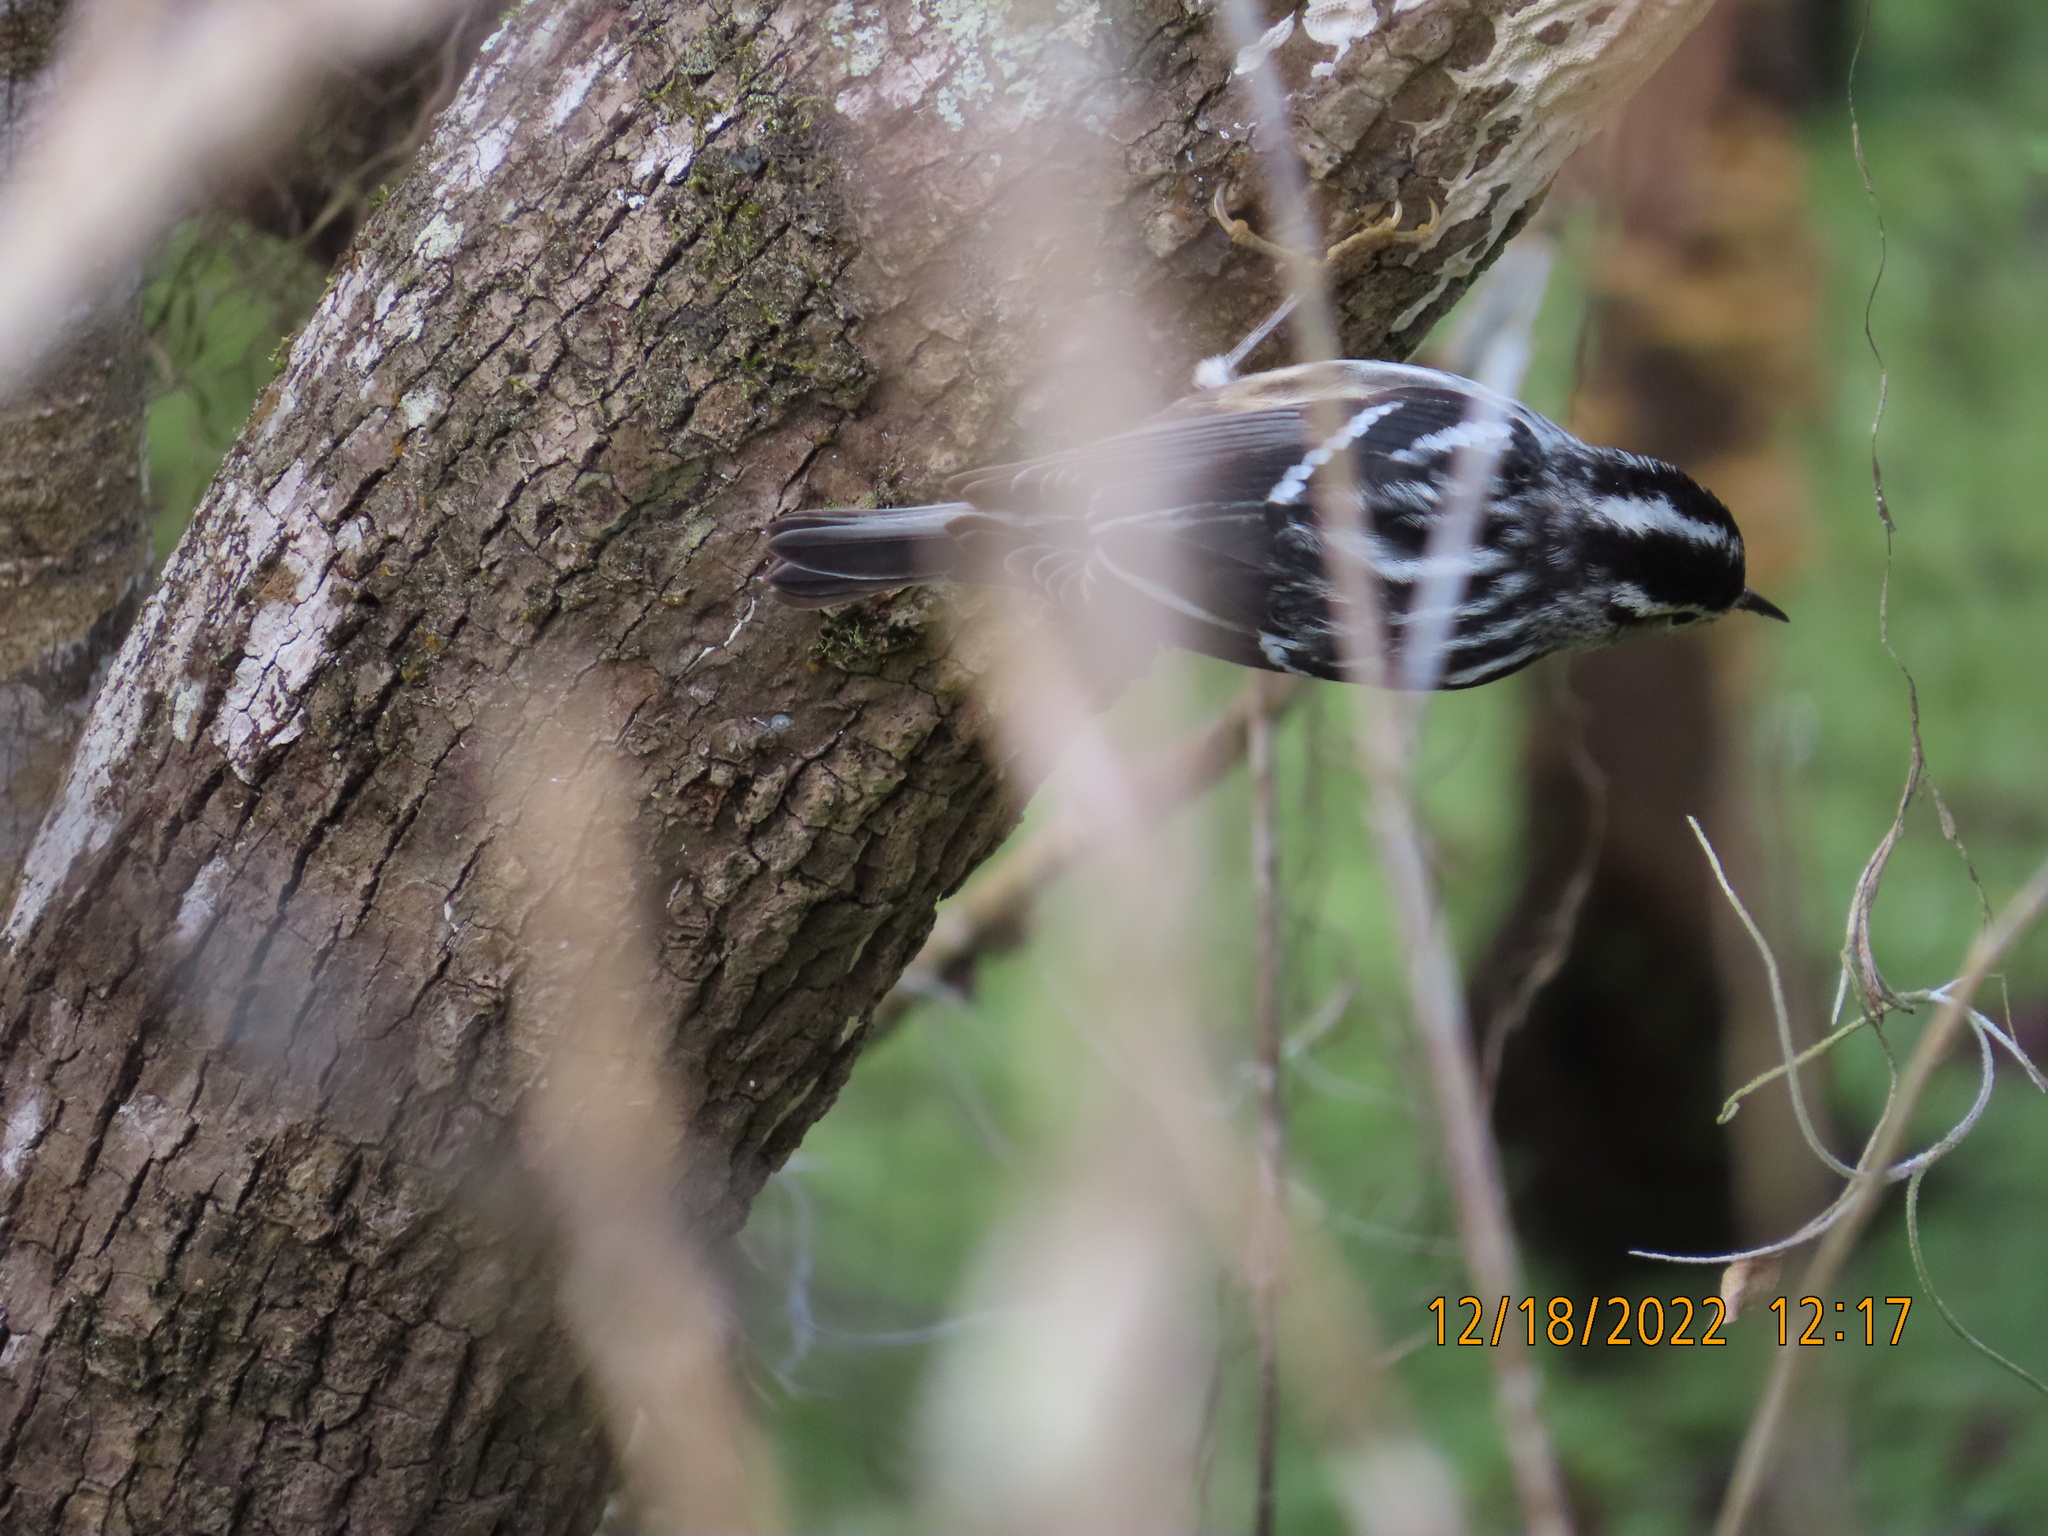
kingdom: Animalia
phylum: Chordata
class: Aves
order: Passeriformes
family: Parulidae
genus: Mniotilta
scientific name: Mniotilta varia
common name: Black-and-white warbler
